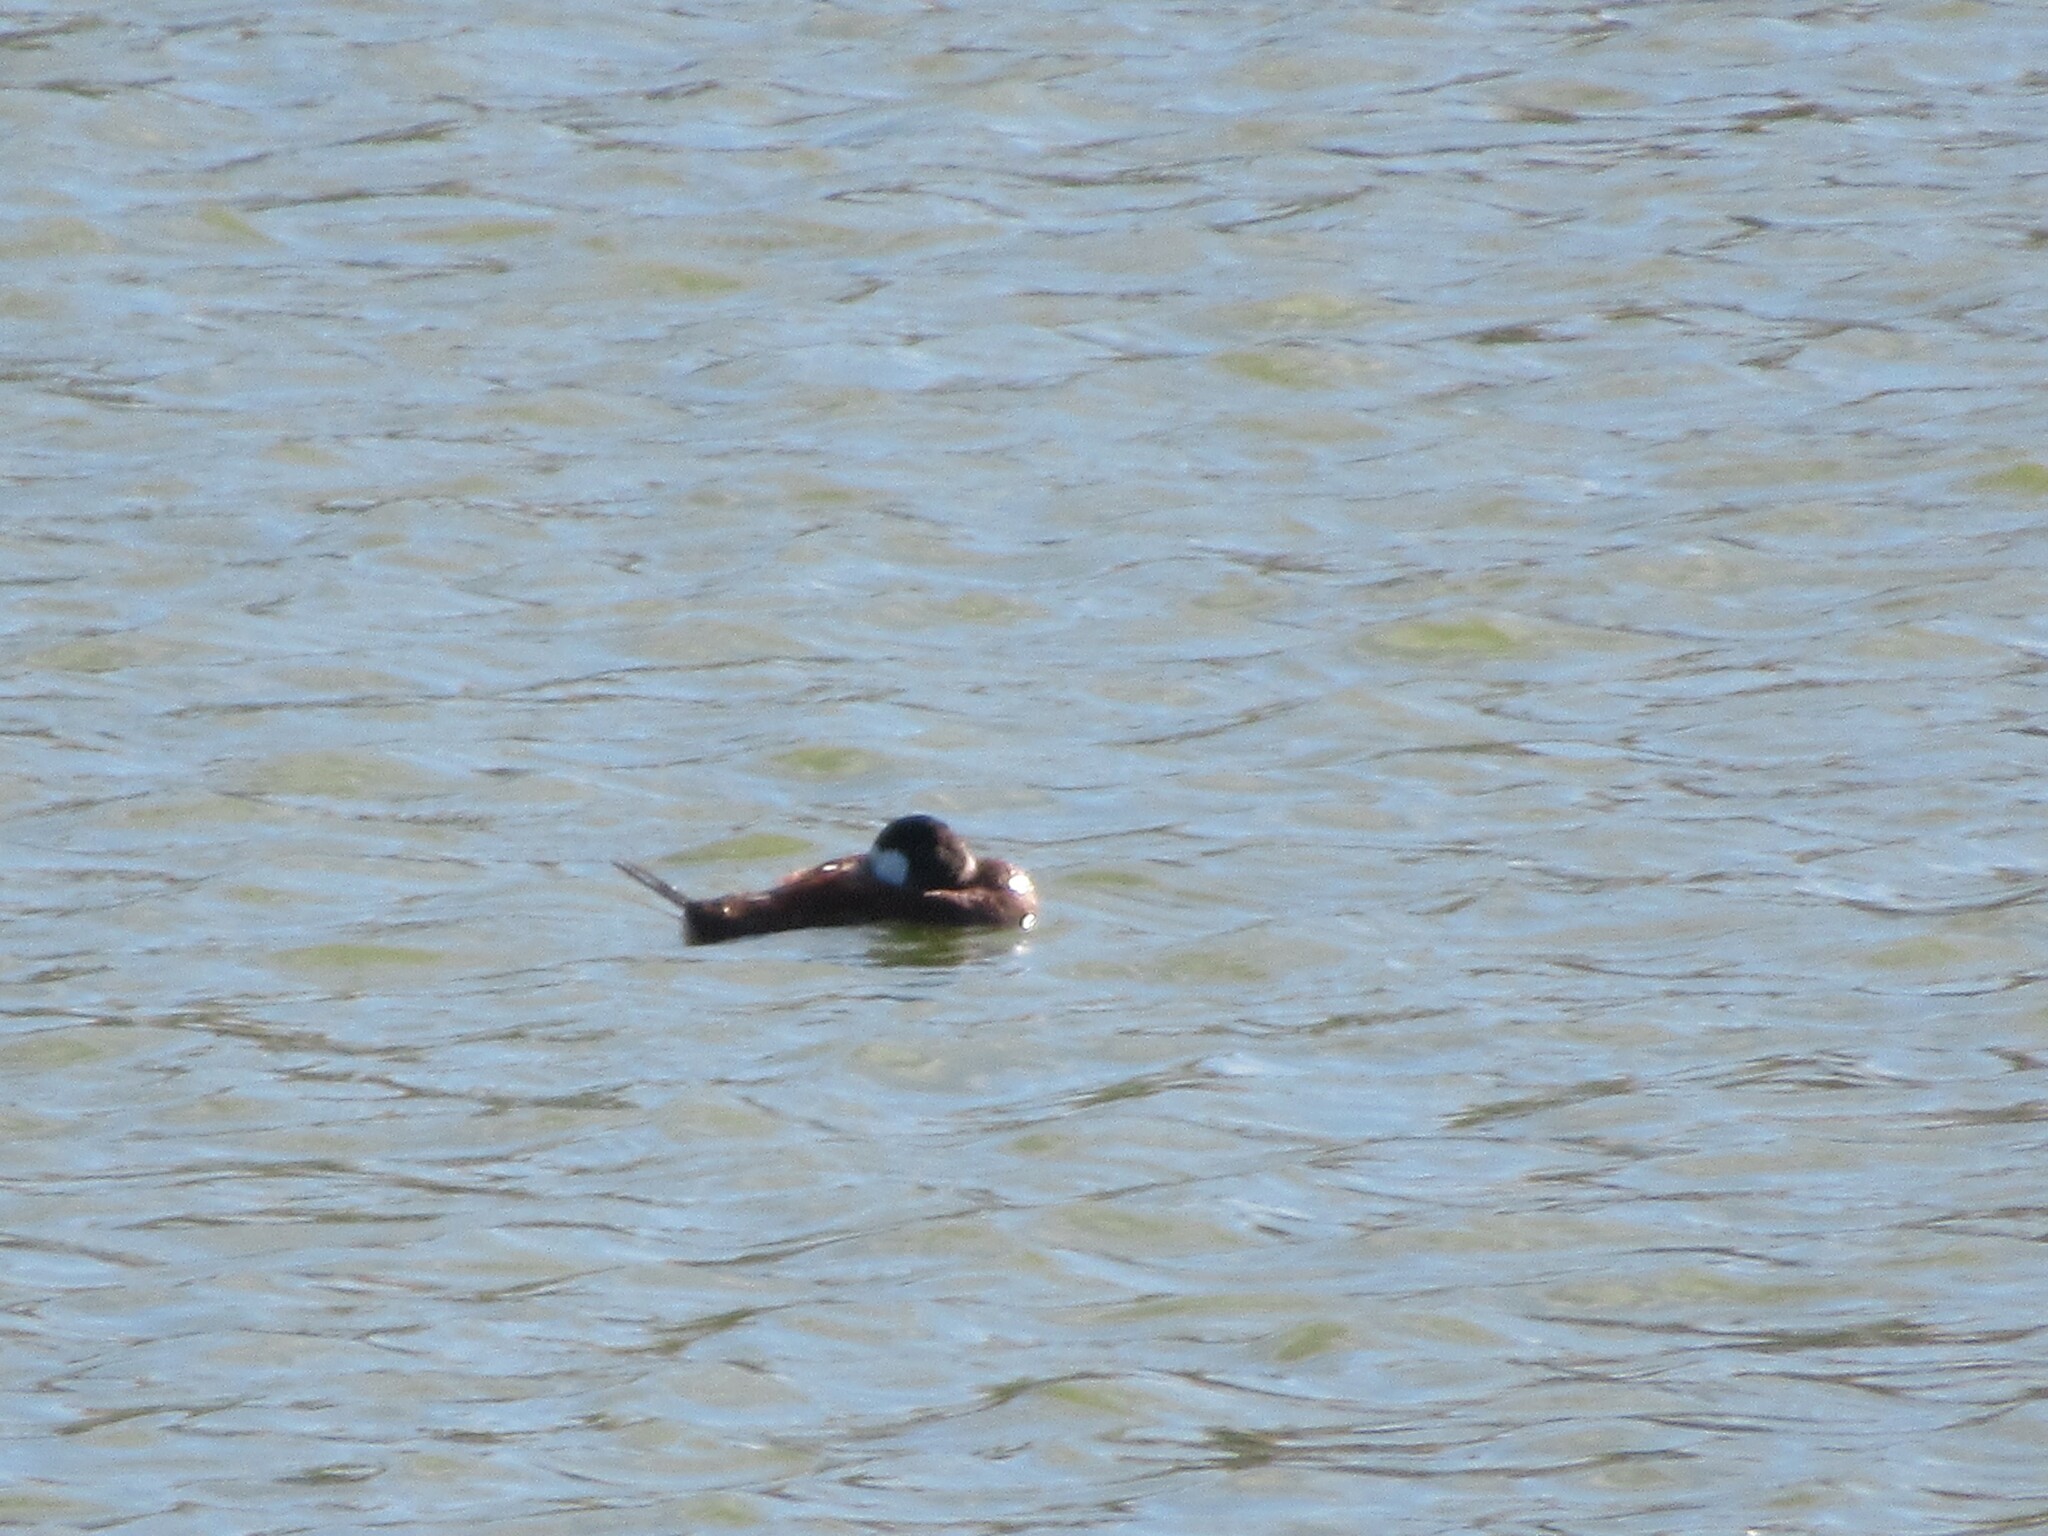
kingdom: Animalia
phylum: Chordata
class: Aves
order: Anseriformes
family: Anatidae
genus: Oxyura
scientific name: Oxyura jamaicensis
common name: Ruddy duck
